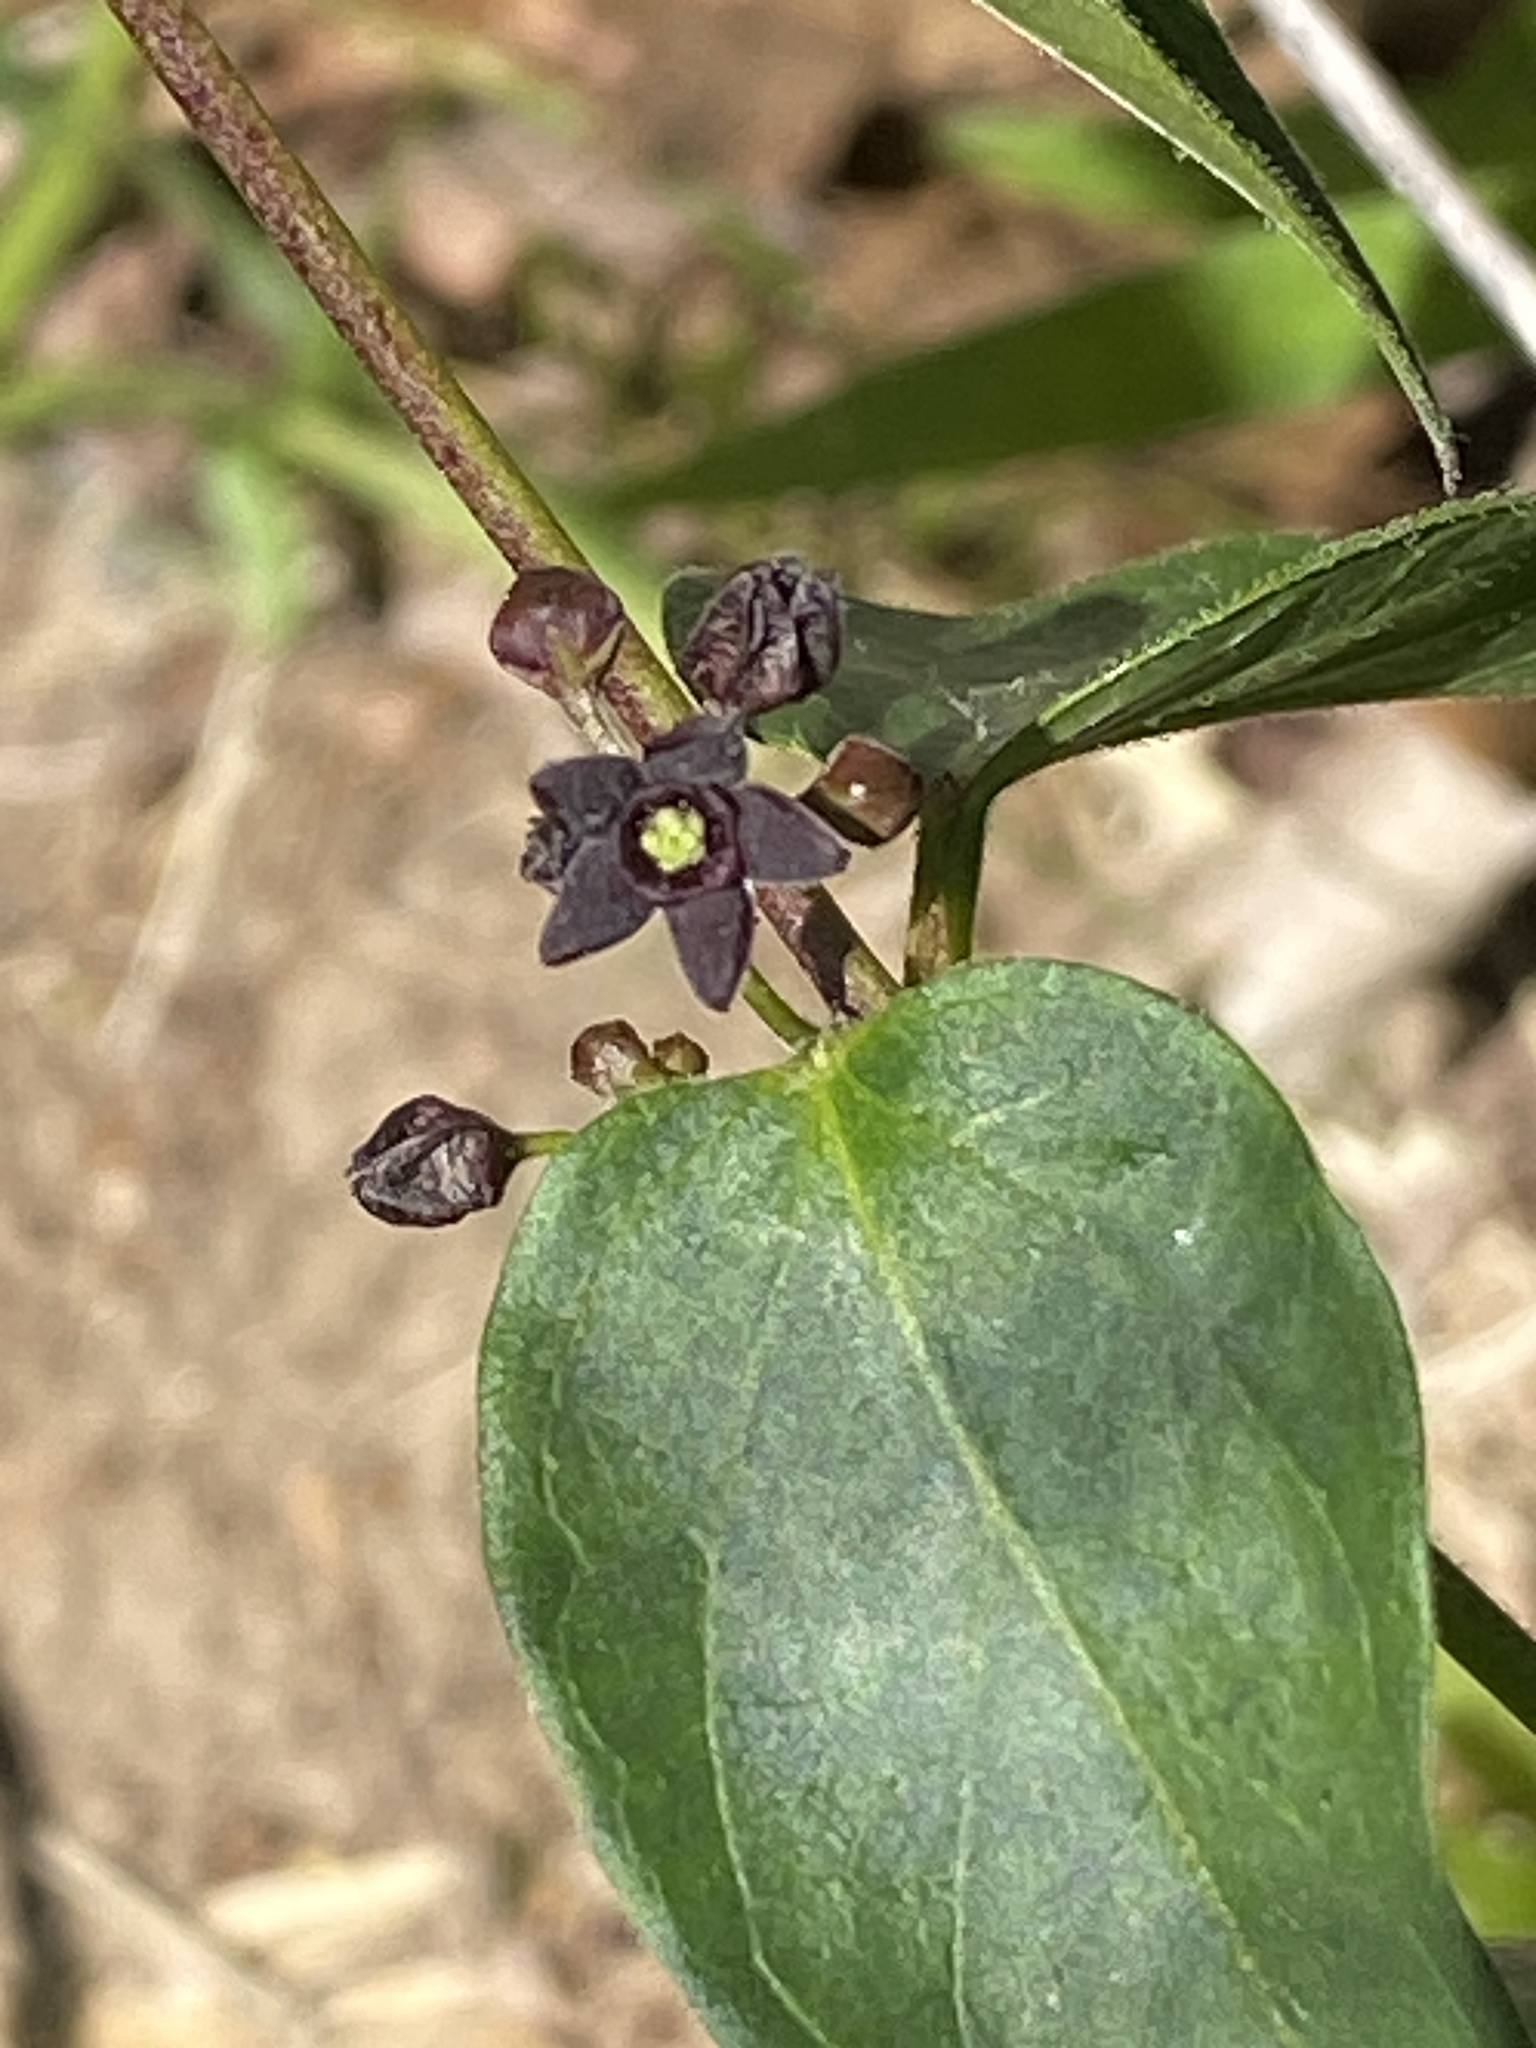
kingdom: Plantae
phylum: Tracheophyta
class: Magnoliopsida
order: Gentianales
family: Apocynaceae
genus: Vincetoxicum
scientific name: Vincetoxicum nigrum
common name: Black swallow-wort
